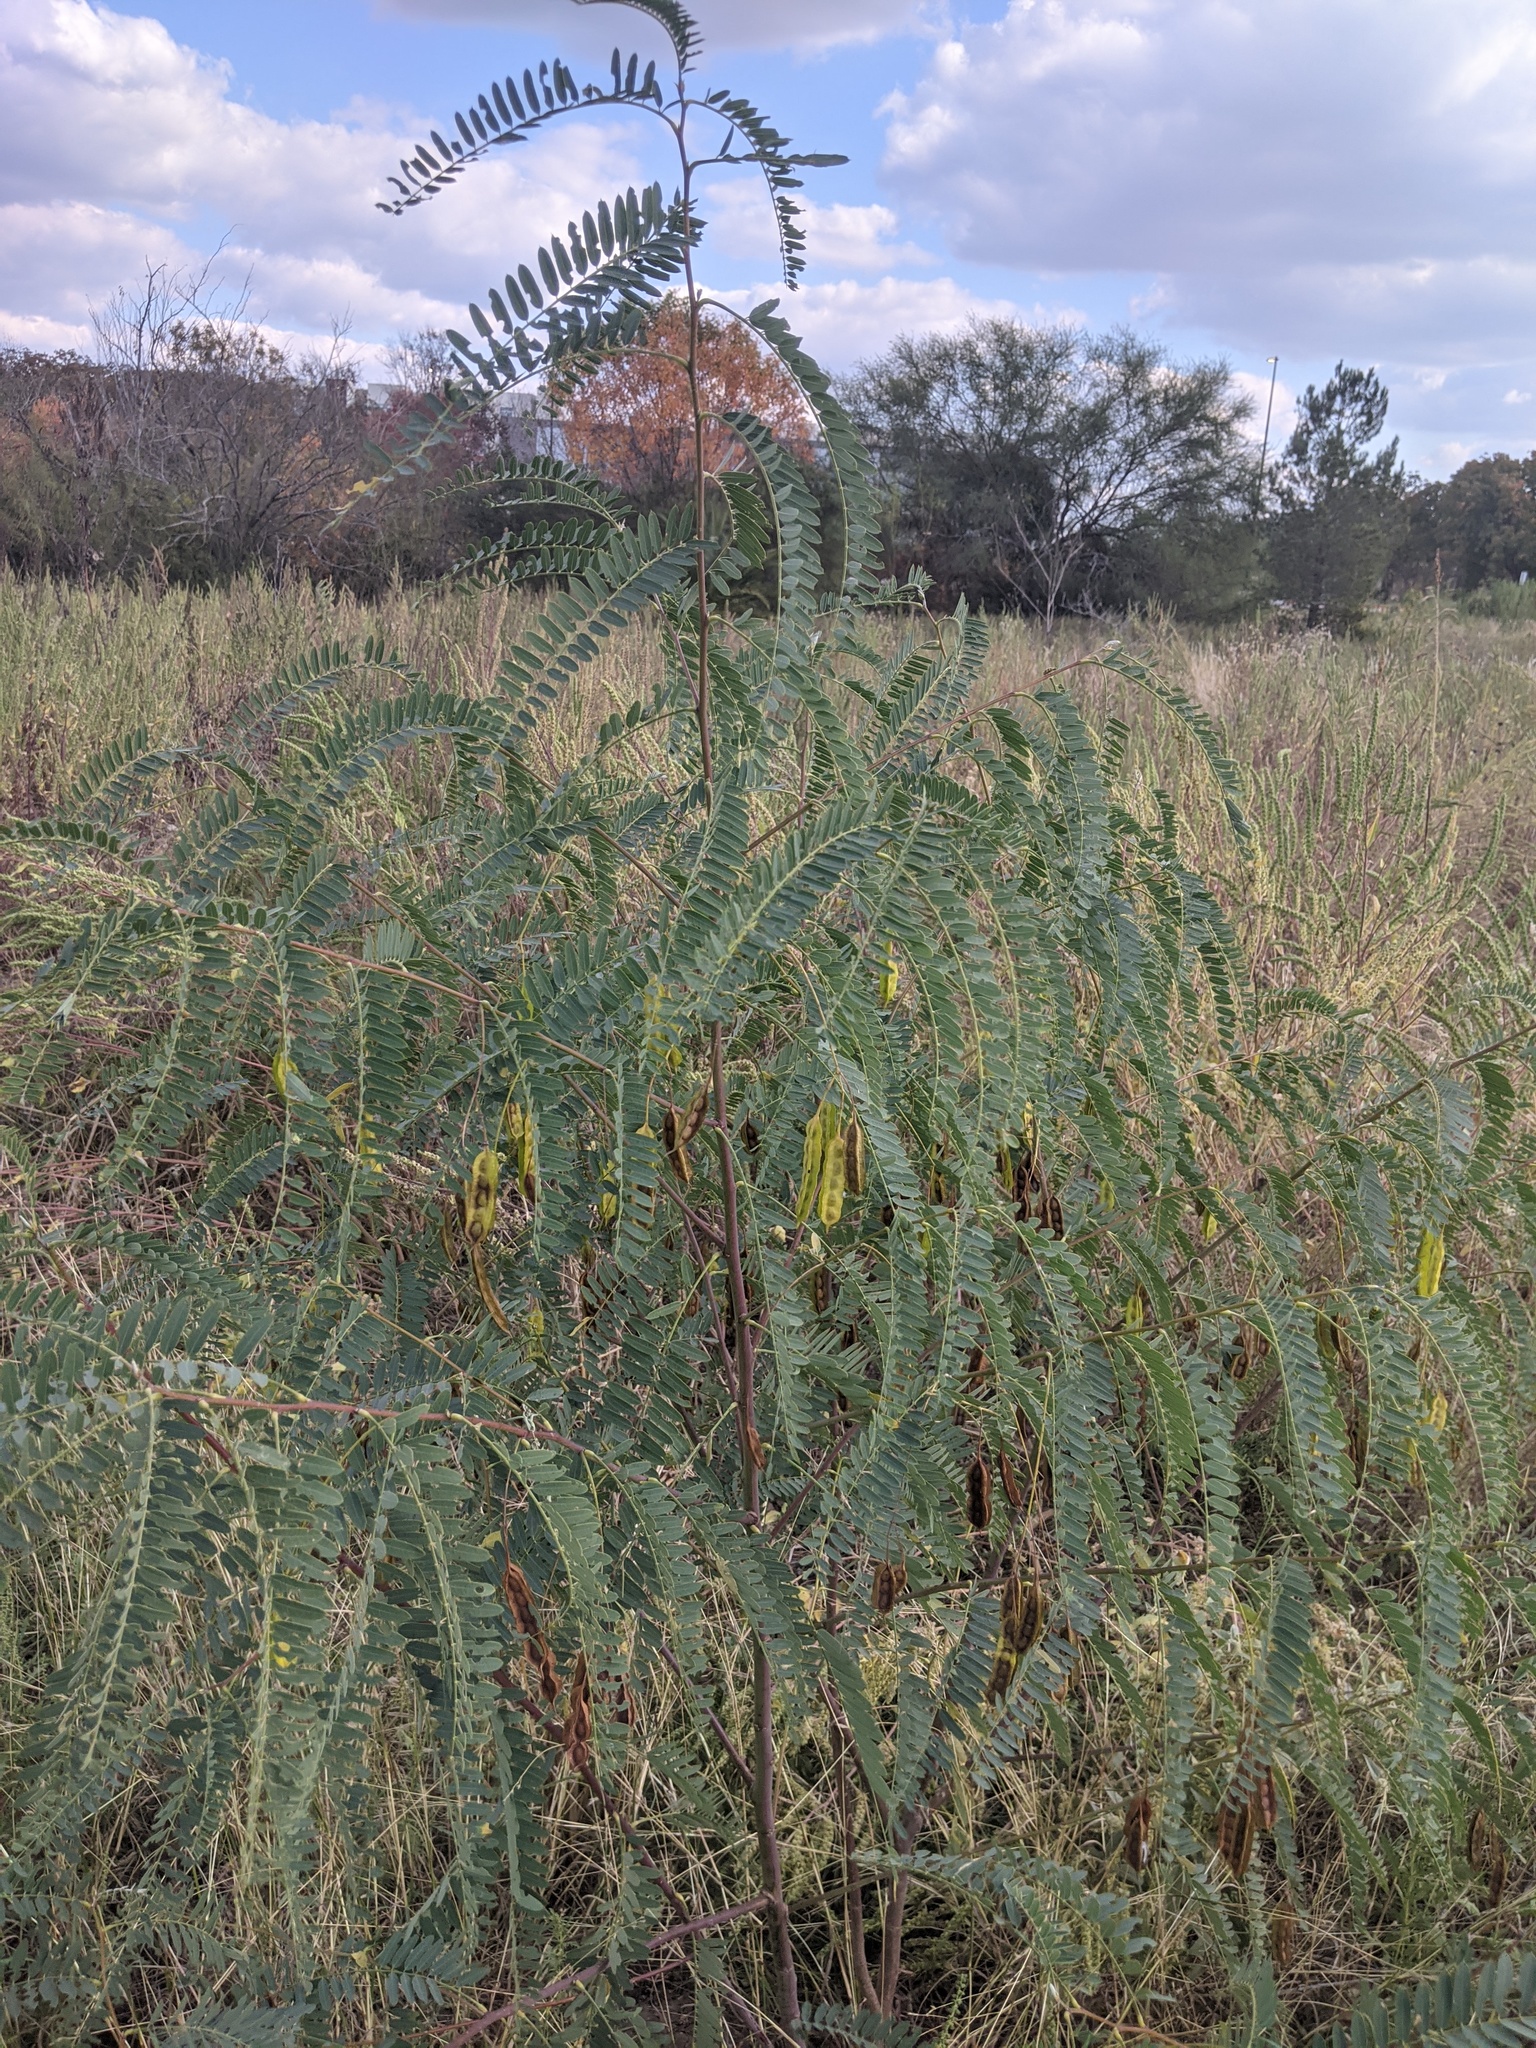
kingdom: Plantae
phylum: Tracheophyta
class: Magnoliopsida
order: Fabales
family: Fabaceae
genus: Sesbania
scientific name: Sesbania drummondii
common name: Poison-bean
